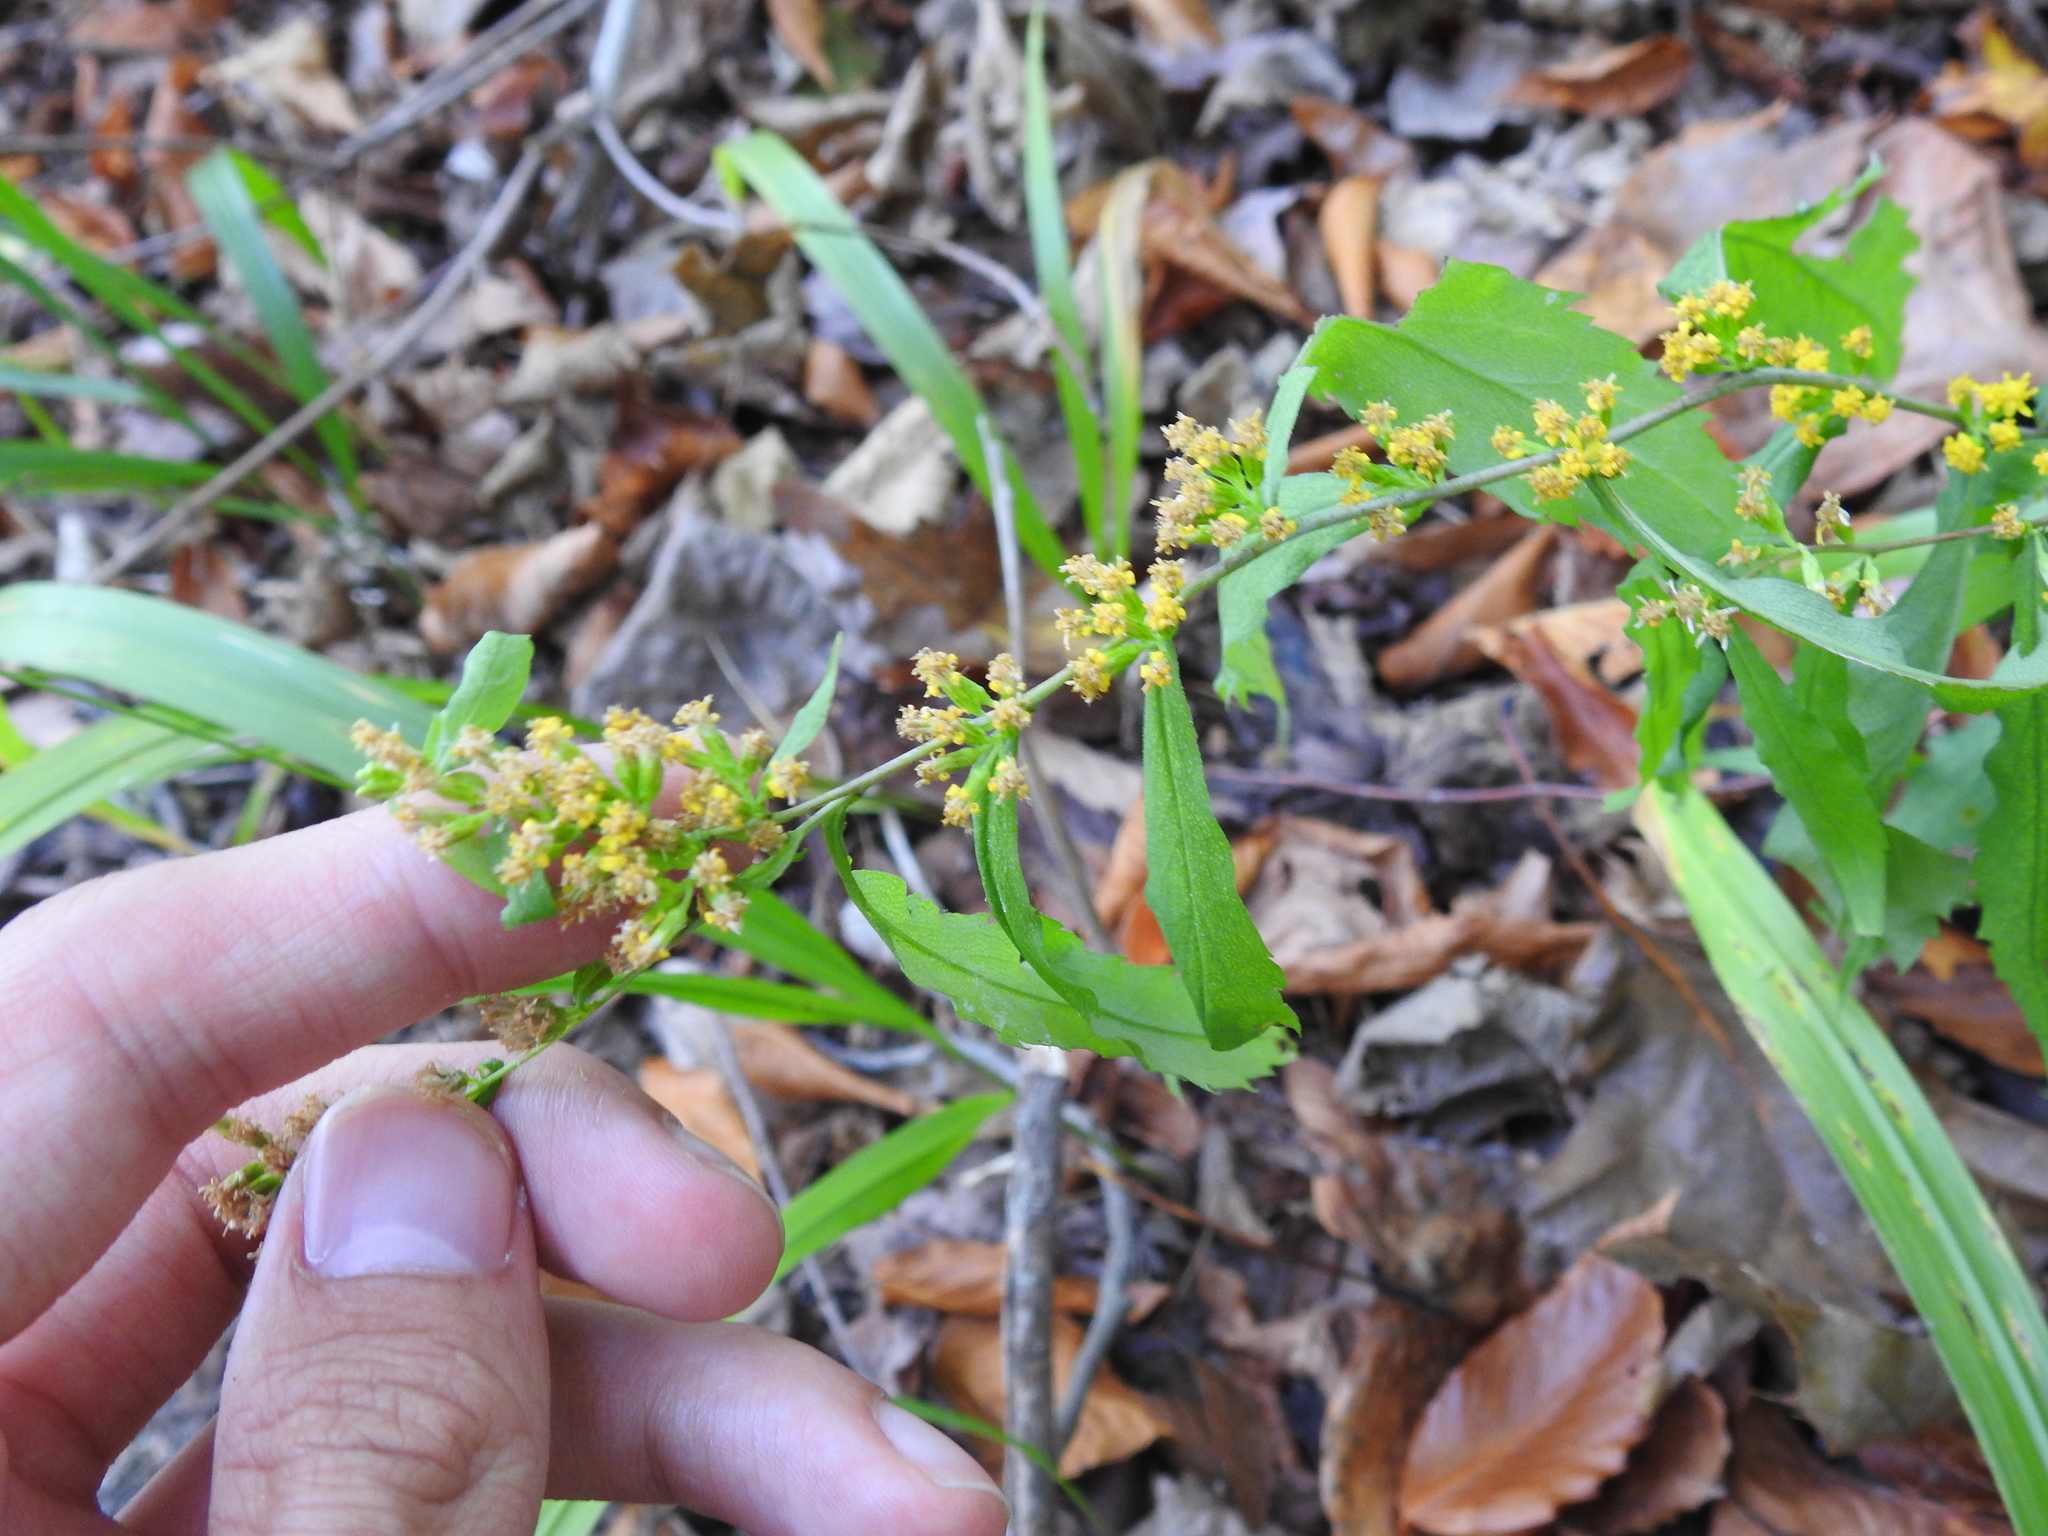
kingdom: Plantae
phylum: Tracheophyta
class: Magnoliopsida
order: Asterales
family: Asteraceae
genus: Solidago
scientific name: Solidago caesia
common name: Woodland goldenrod
